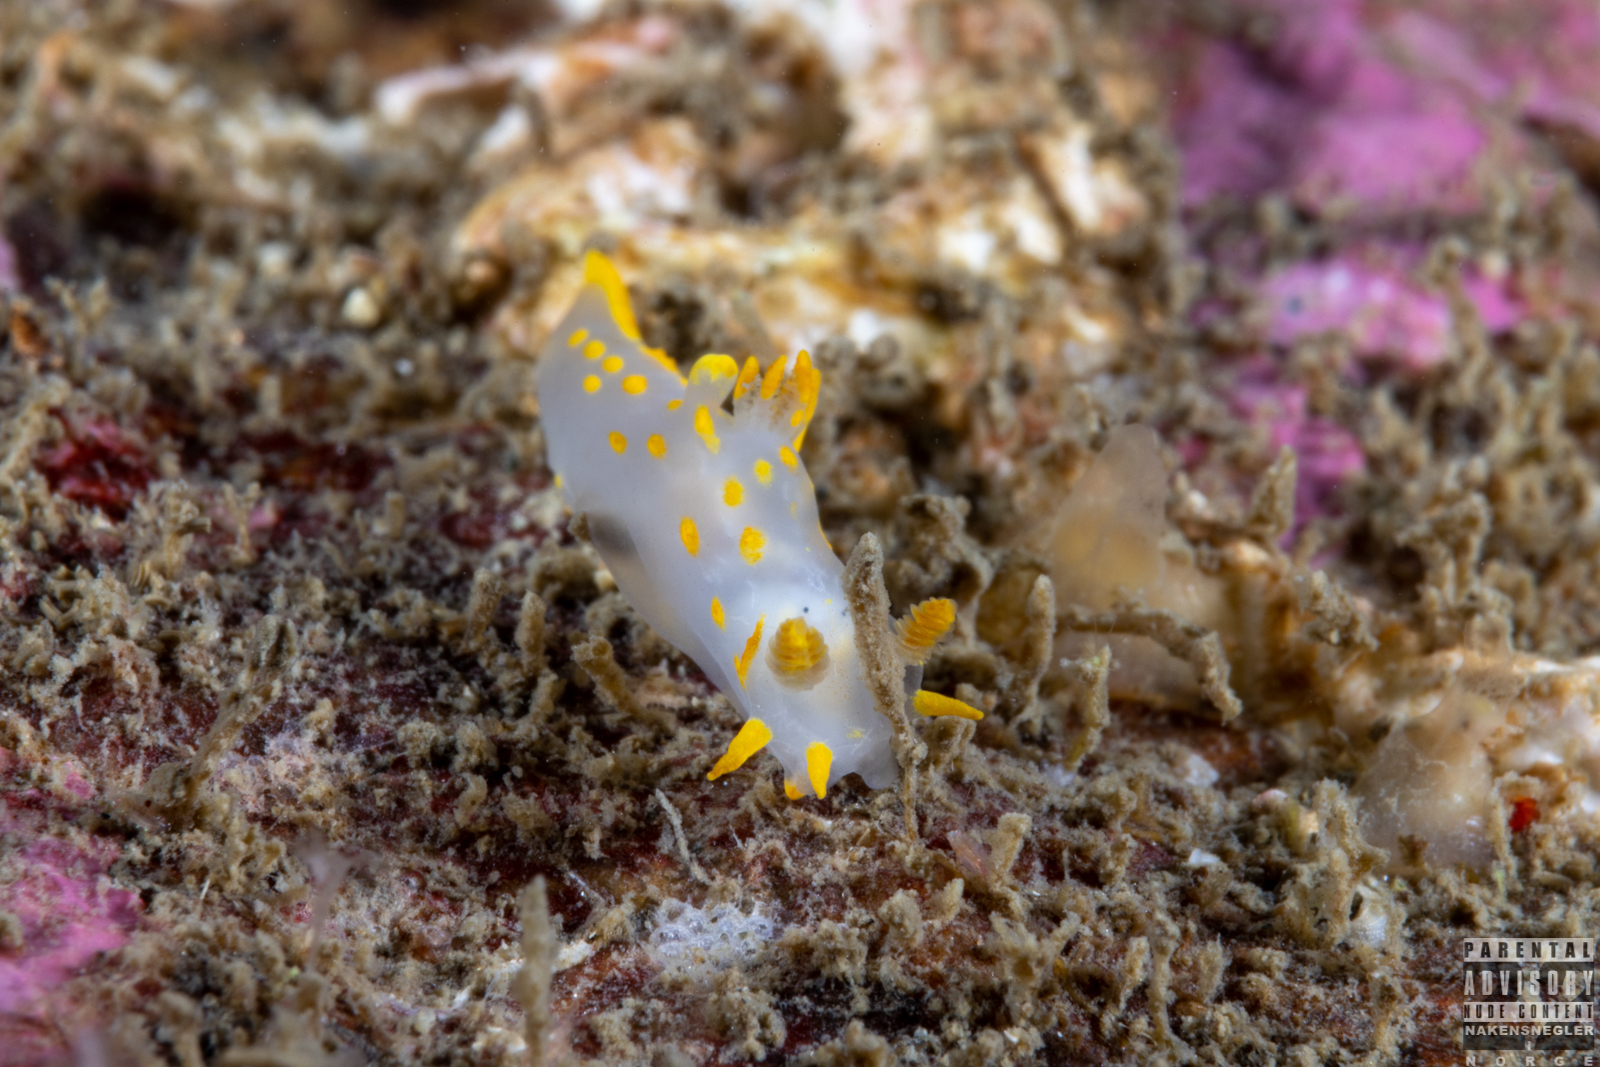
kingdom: Animalia
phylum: Mollusca
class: Gastropoda
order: Nudibranchia
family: Polyceridae
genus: Polycera
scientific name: Polycera quadrilineata
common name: Four-striped polycera
